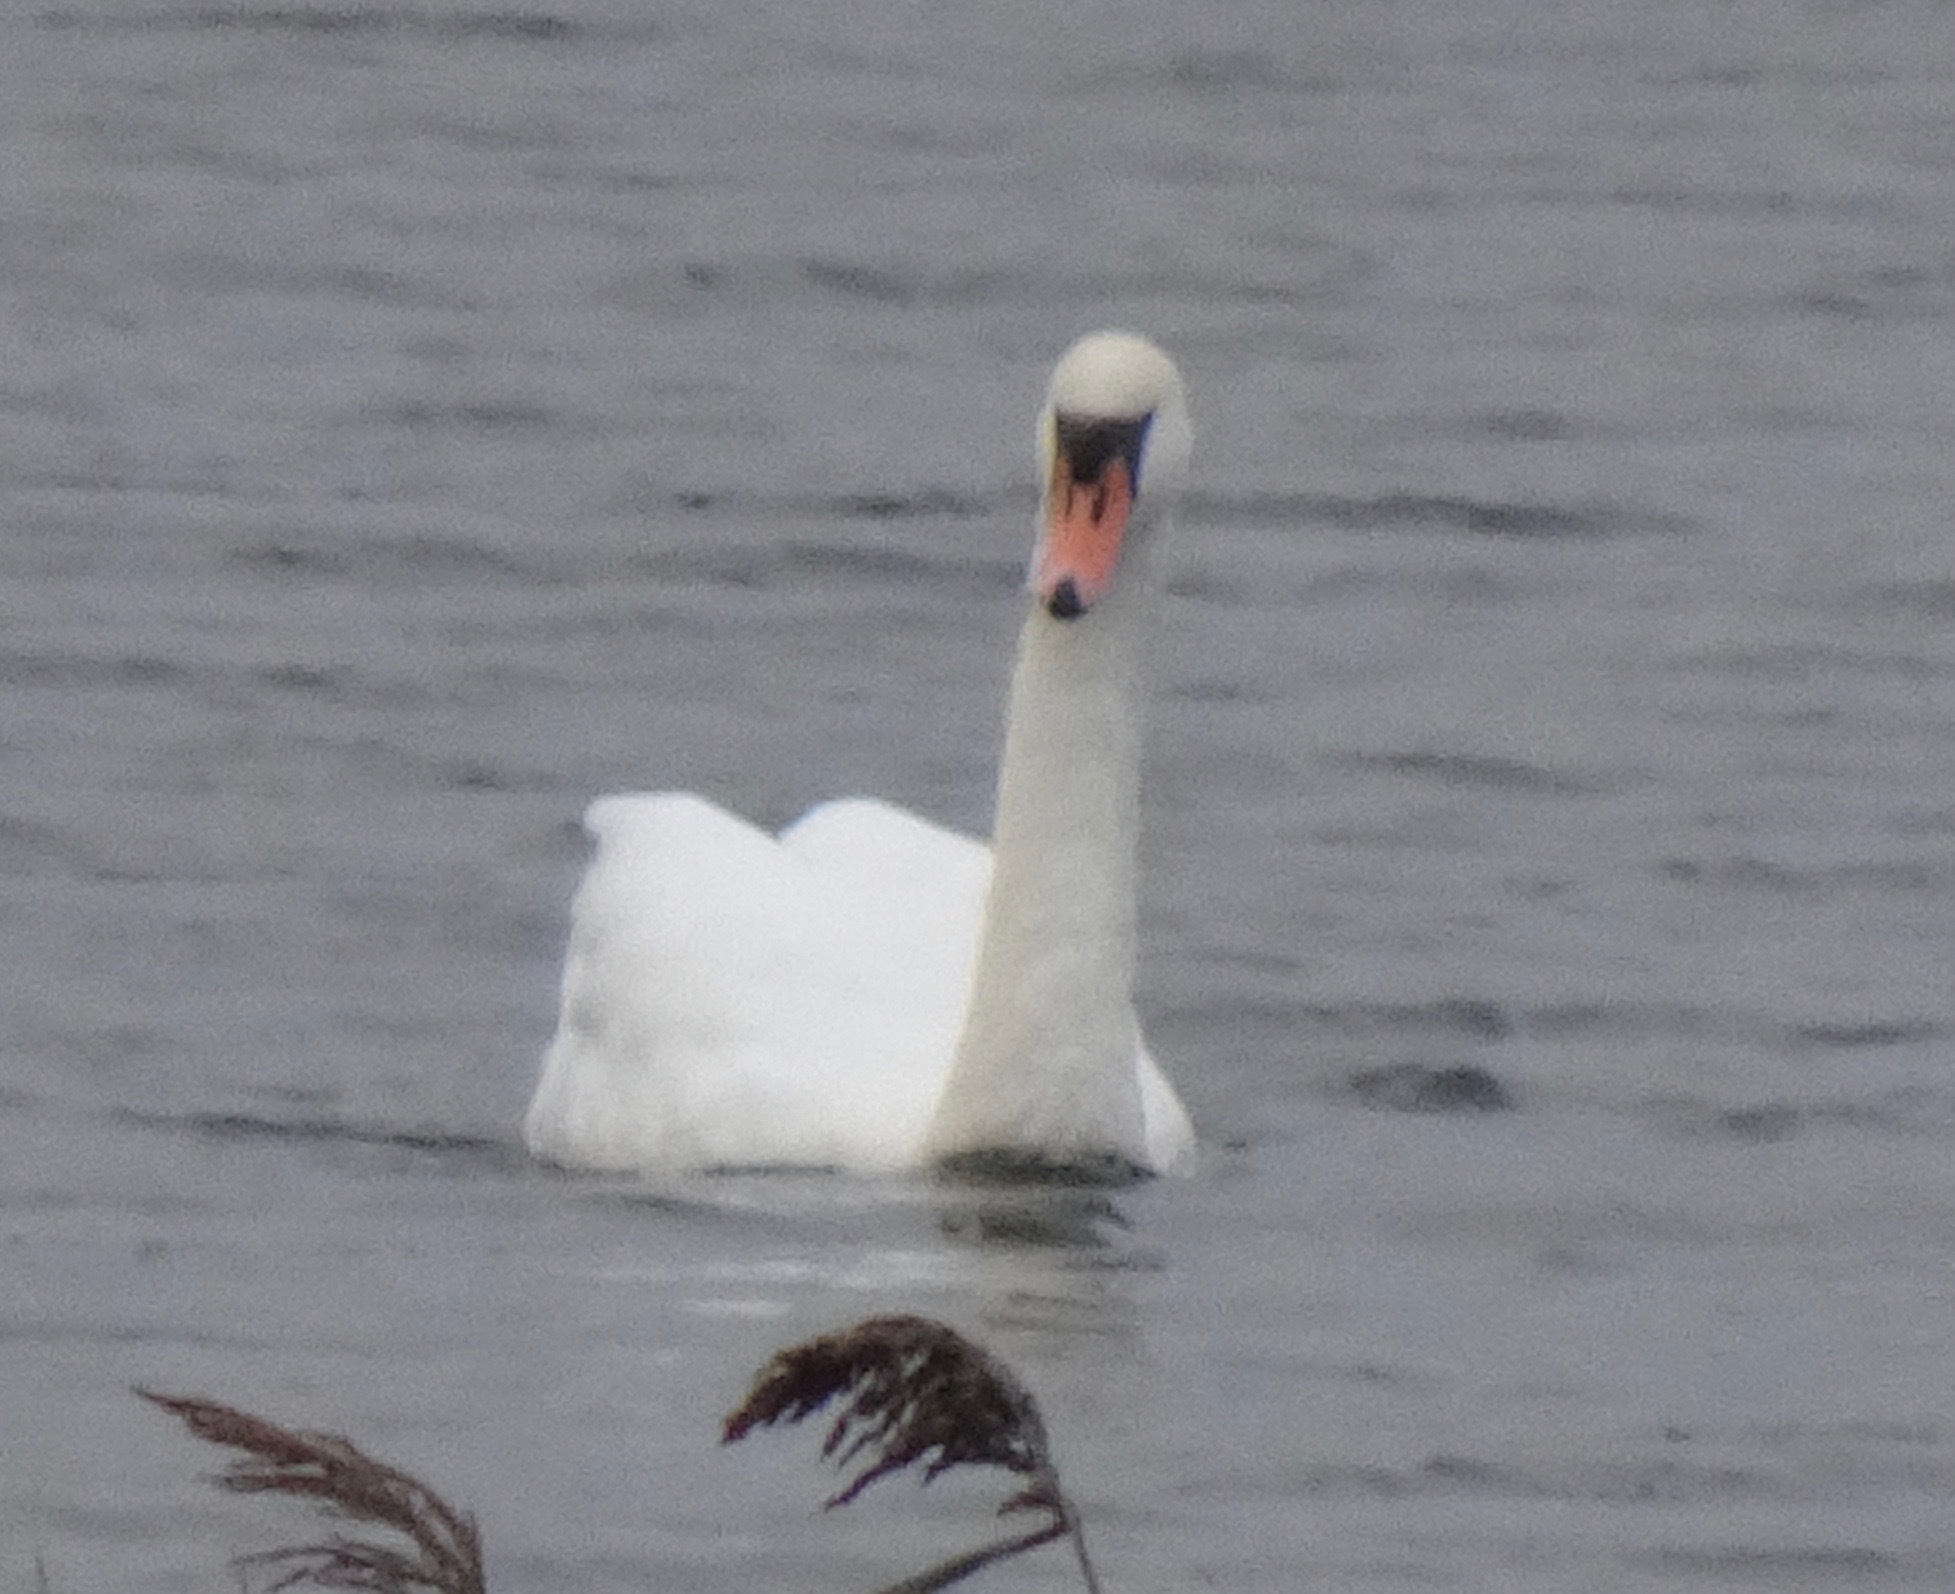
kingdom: Animalia
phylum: Chordata
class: Aves
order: Anseriformes
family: Anatidae
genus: Cygnus
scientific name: Cygnus olor
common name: Mute swan
